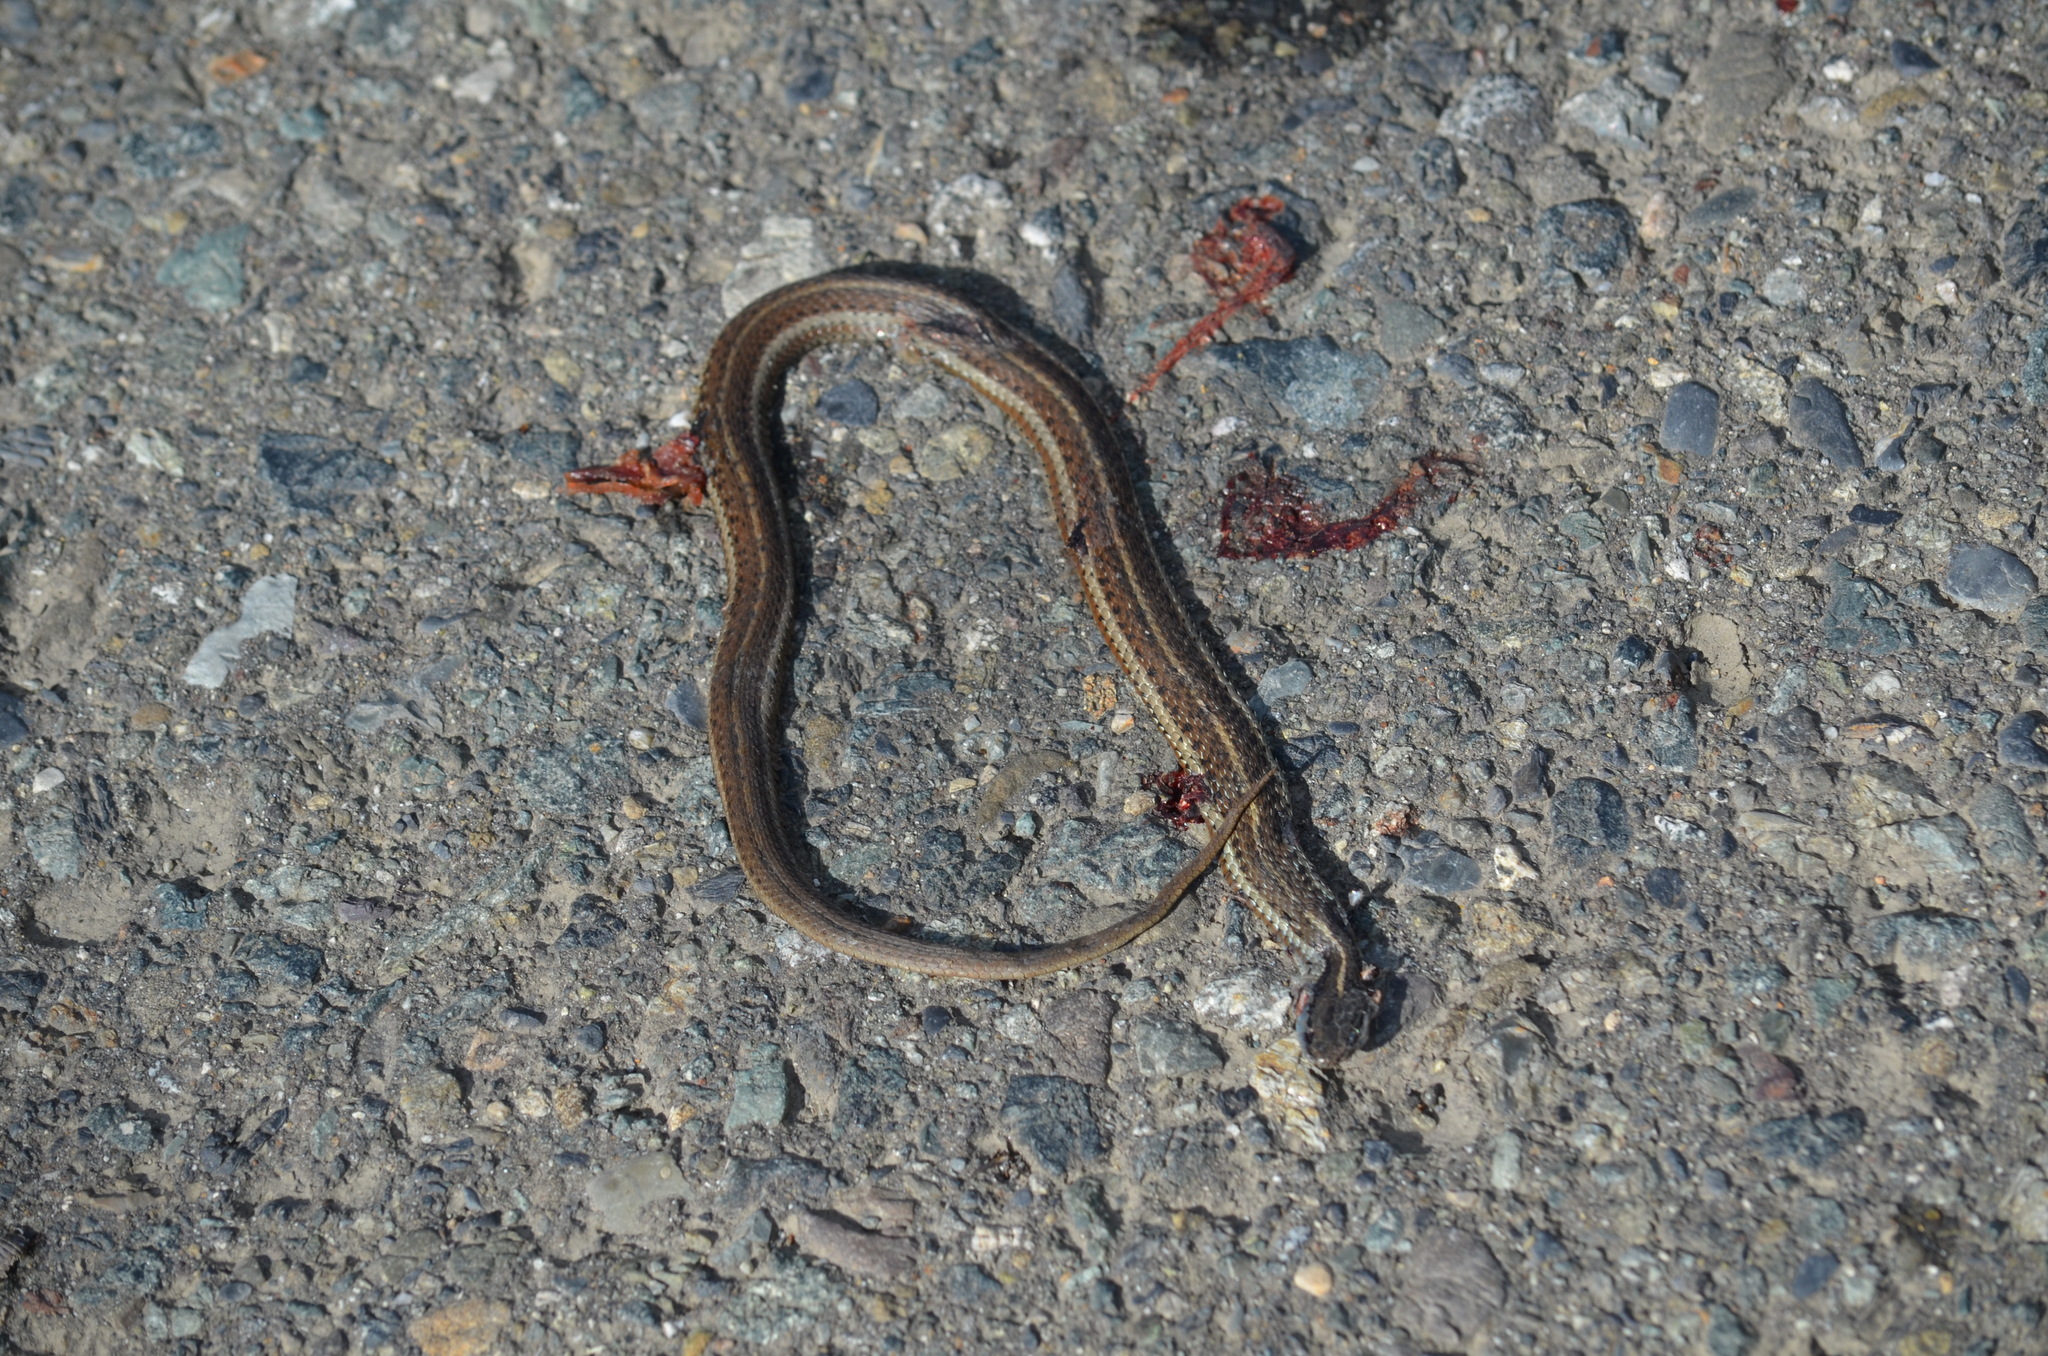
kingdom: Animalia
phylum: Chordata
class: Squamata
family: Colubridae
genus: Thamnophis
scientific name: Thamnophis ordinoides
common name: Northwestern garter snake
